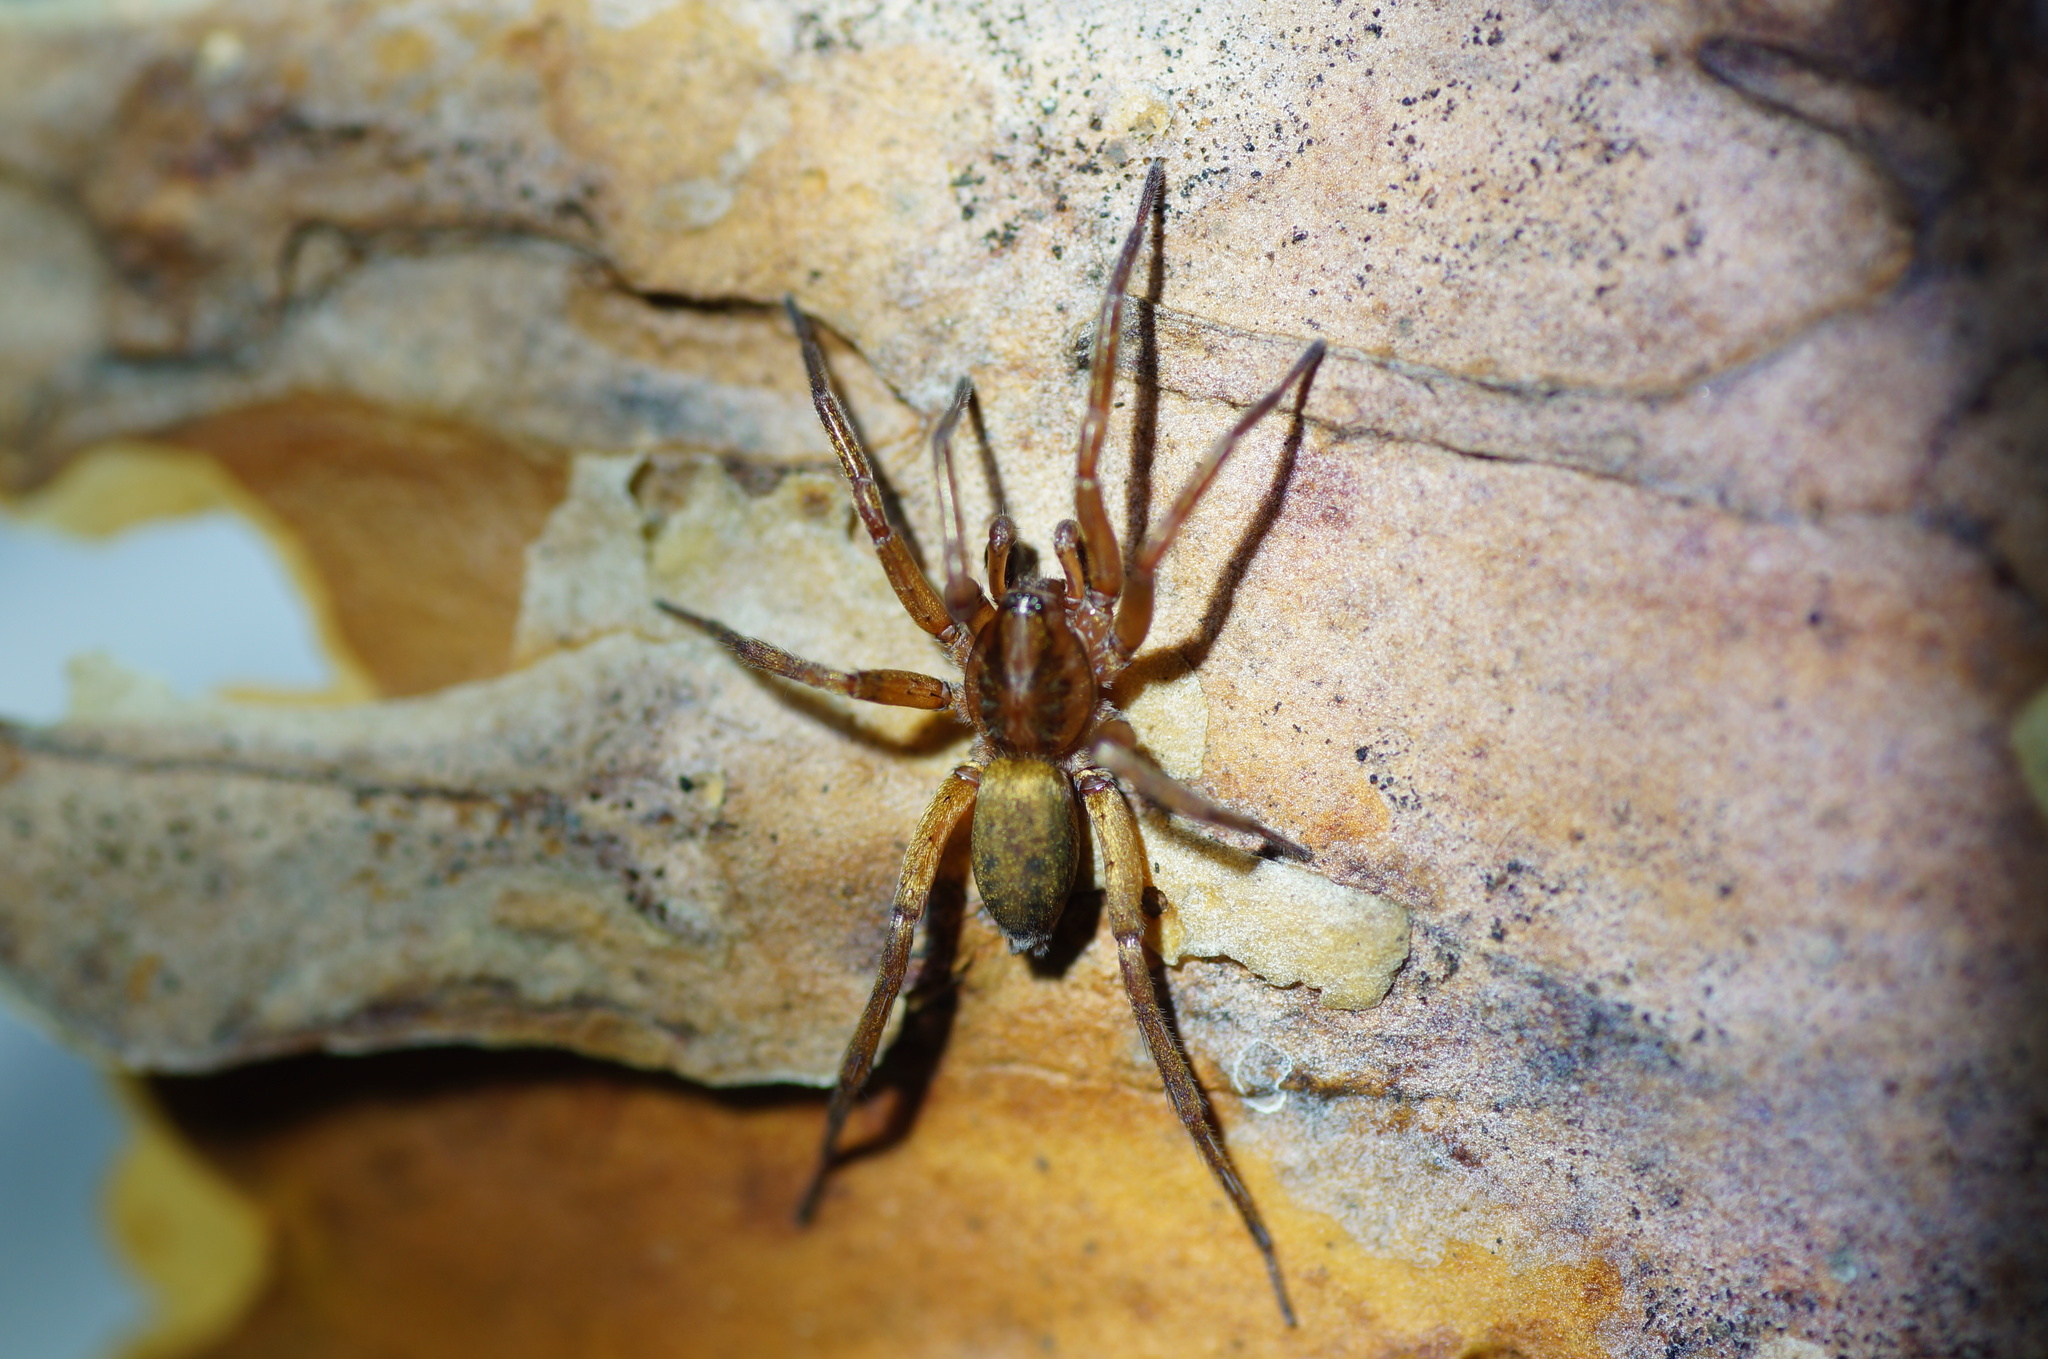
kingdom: Animalia
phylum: Arthropoda
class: Arachnida
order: Araneae
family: Liocranidae
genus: Agroeca
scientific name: Agroeca brunnea
